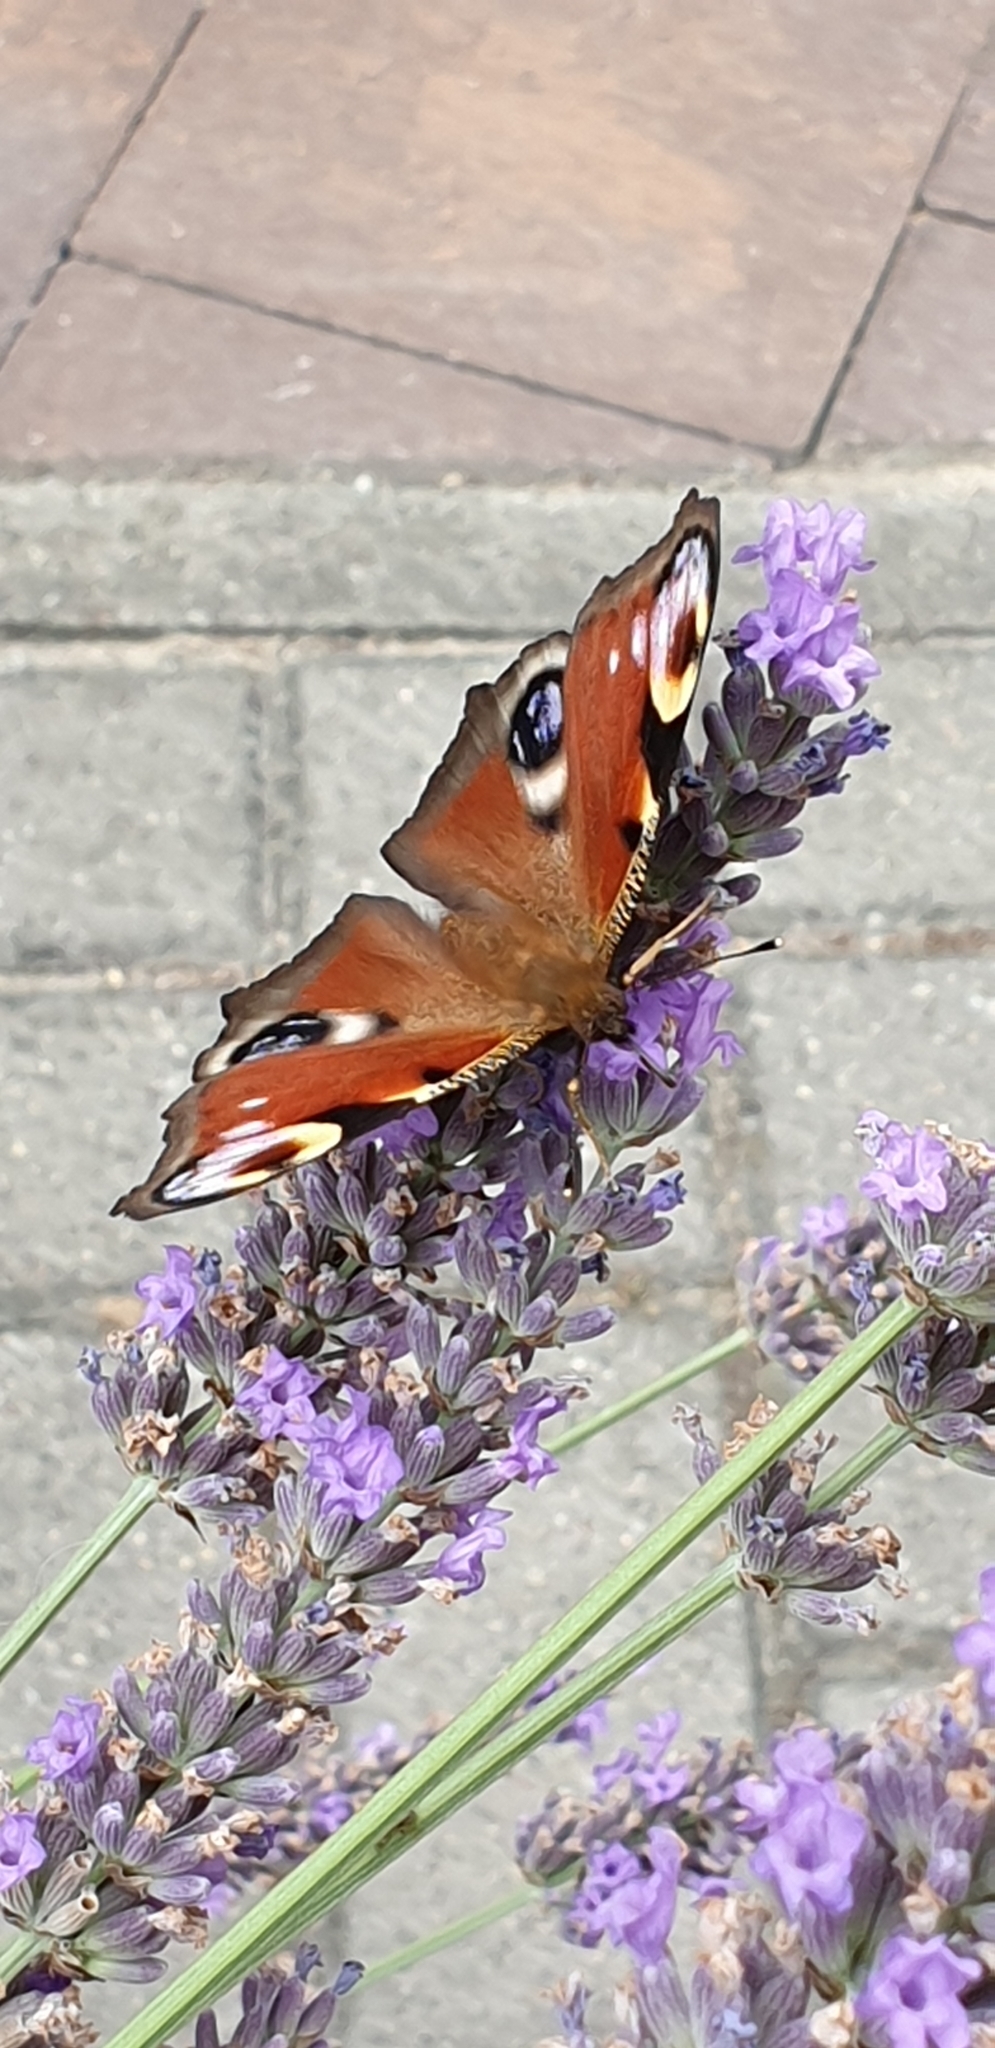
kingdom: Animalia
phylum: Arthropoda
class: Insecta
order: Lepidoptera
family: Nymphalidae
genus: Aglais
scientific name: Aglais io
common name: Peacock
